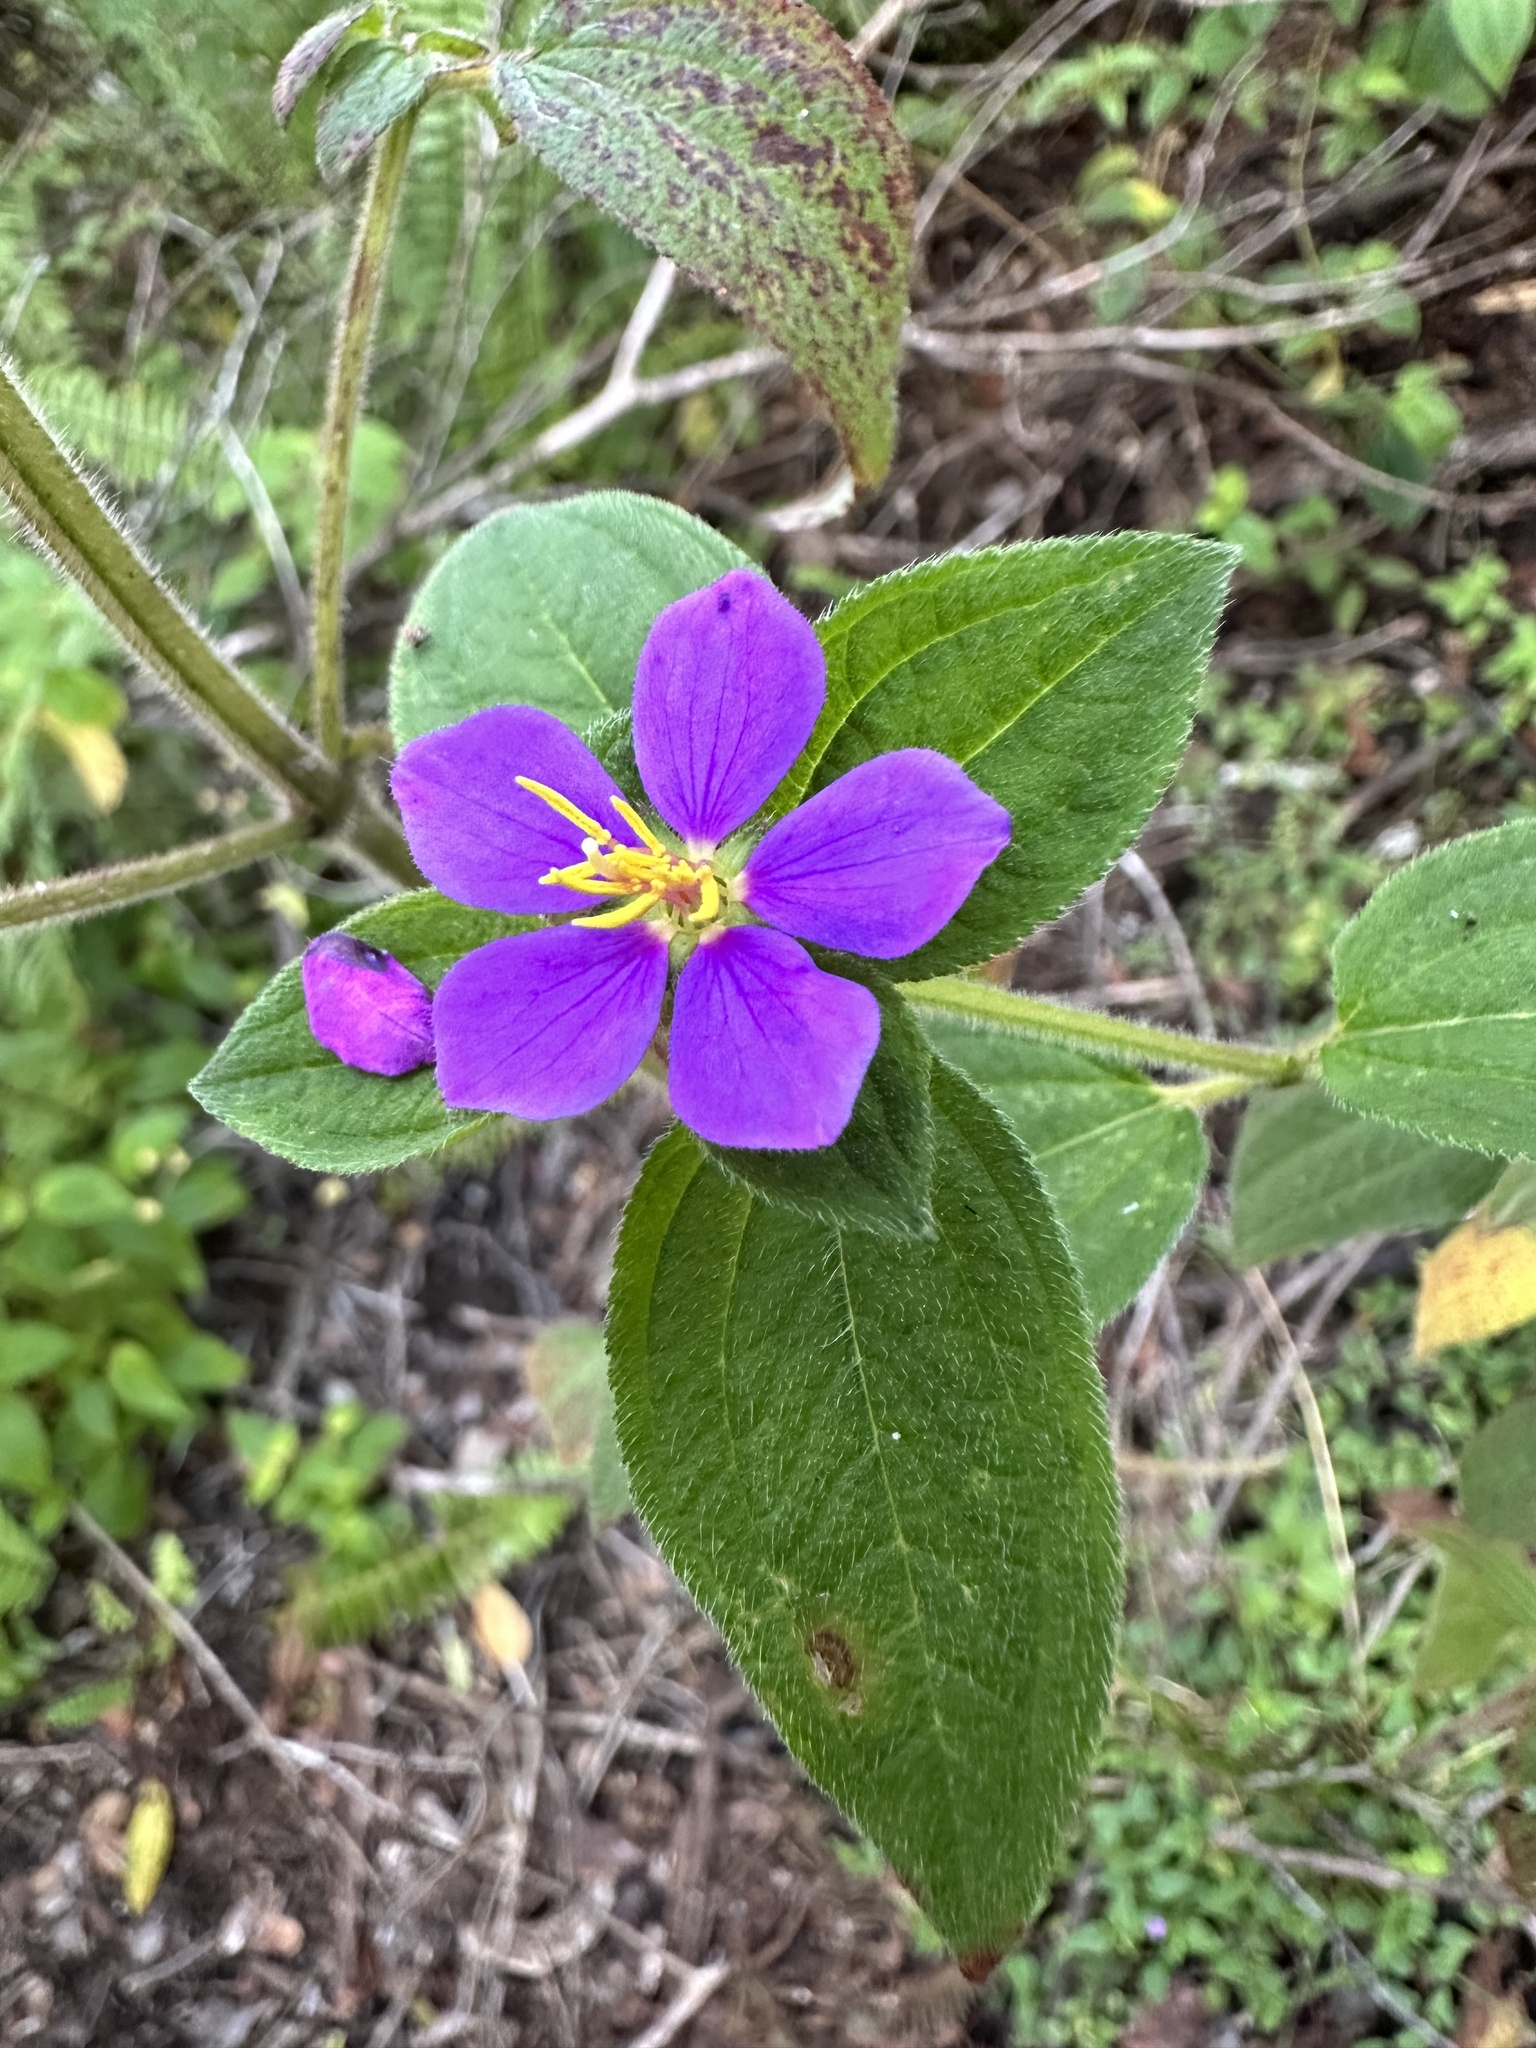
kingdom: Plantae
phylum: Tracheophyta
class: Magnoliopsida
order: Myrtales
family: Melastomataceae
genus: Chaetogastra
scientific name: Chaetogastra herbacea
